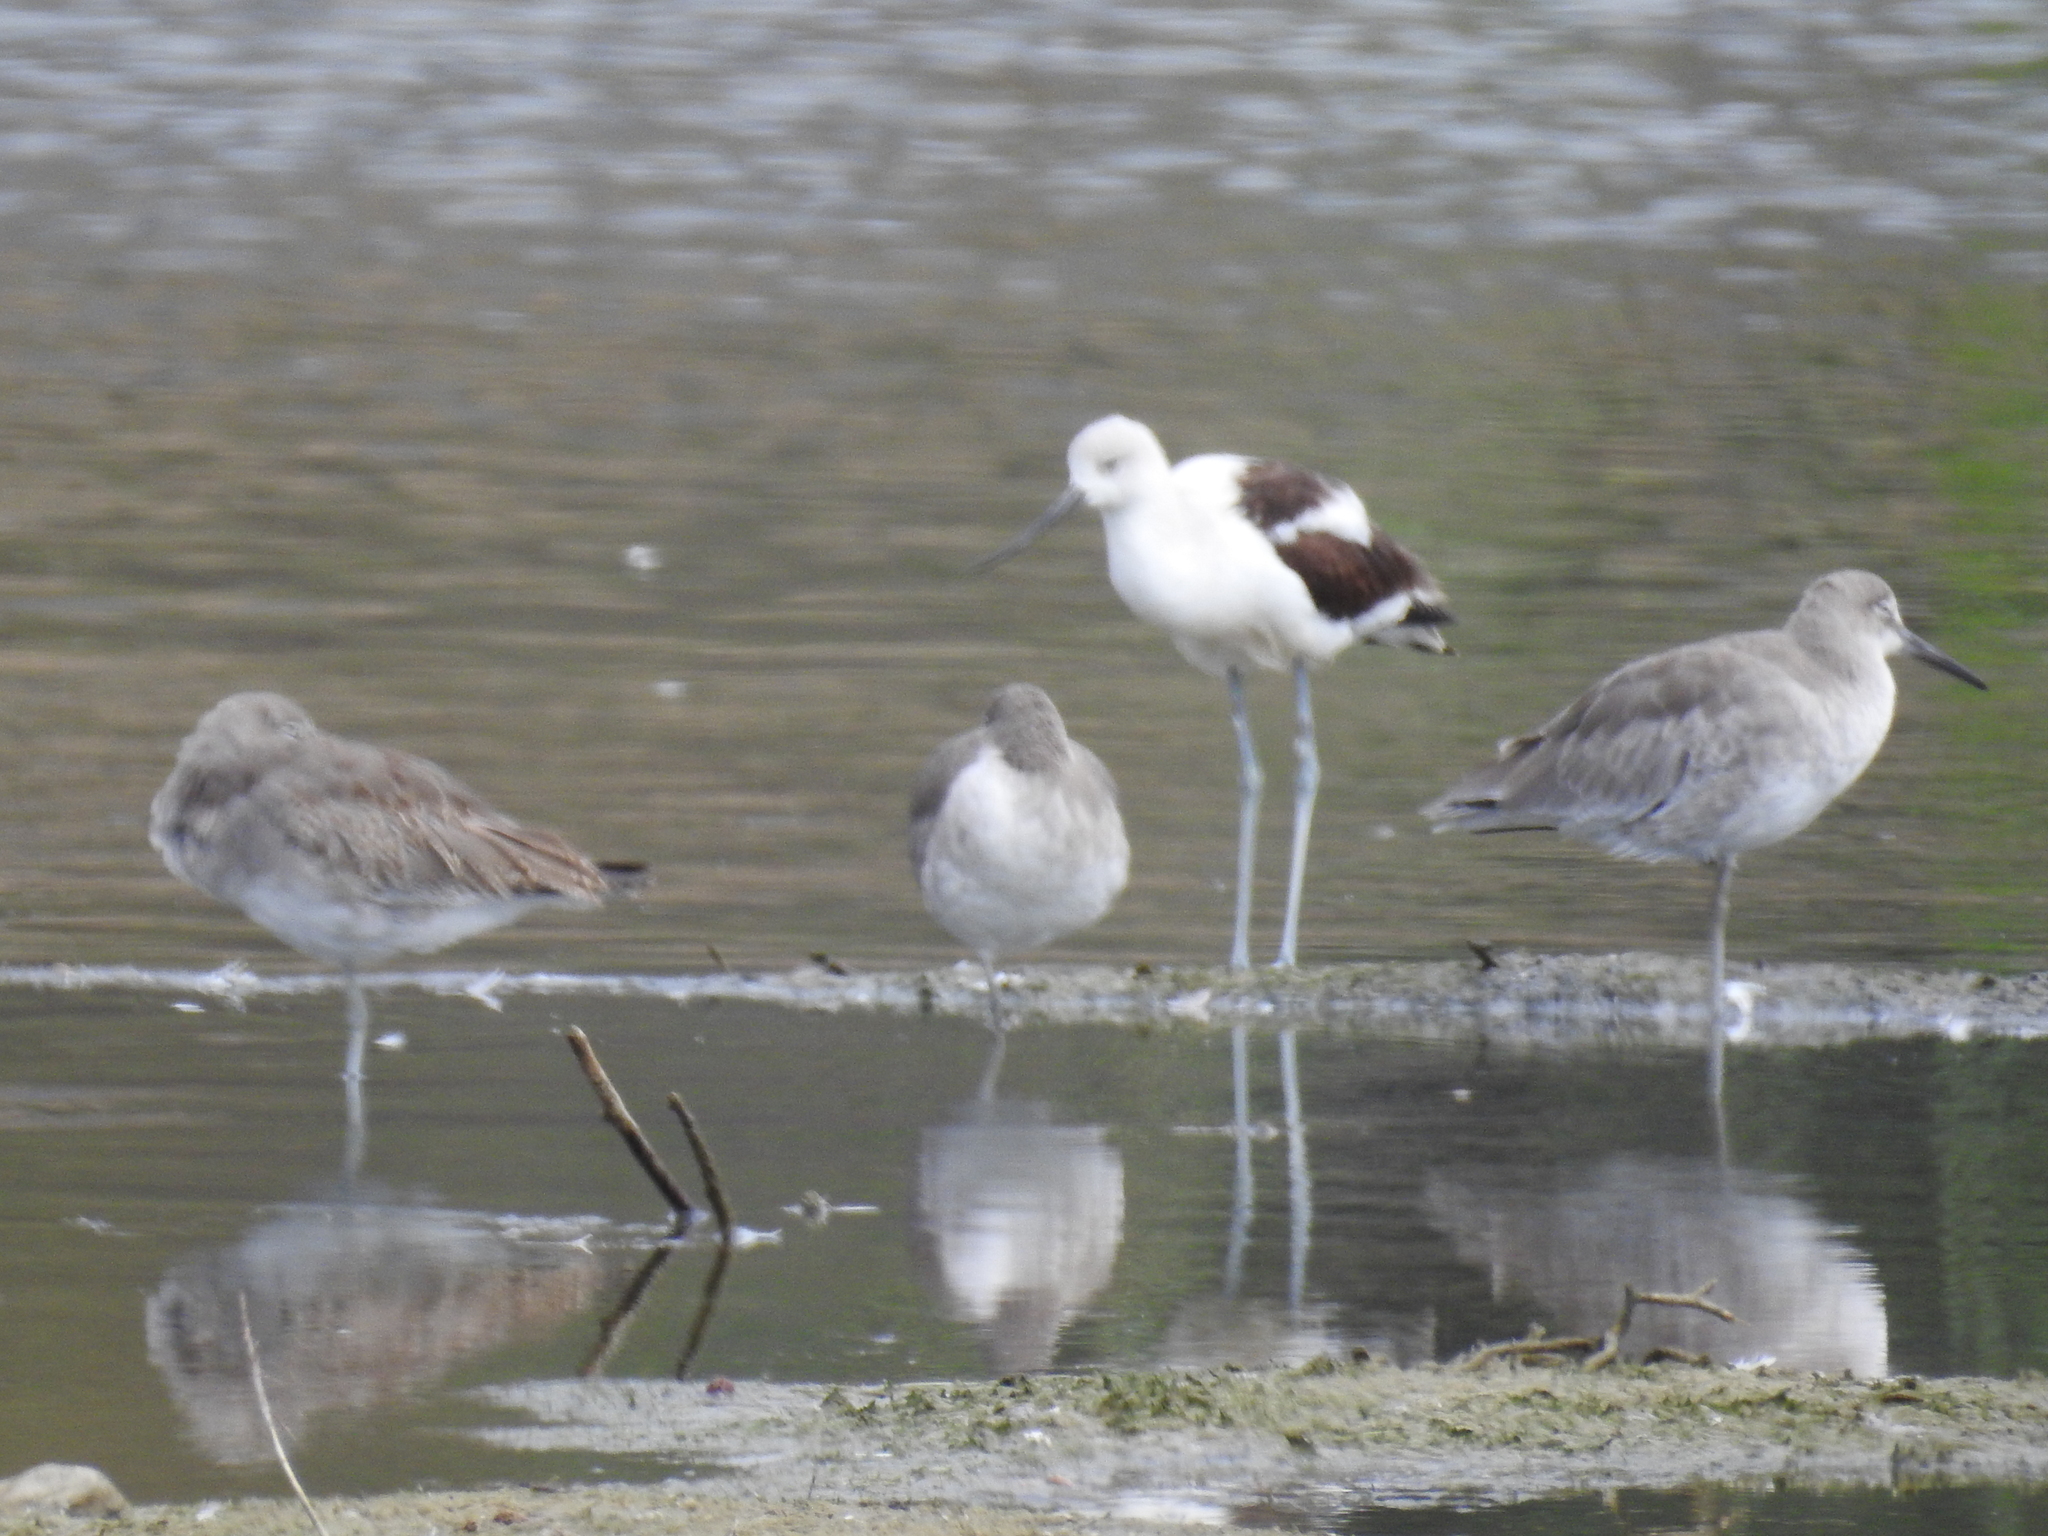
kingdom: Animalia
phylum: Chordata
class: Aves
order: Charadriiformes
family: Recurvirostridae
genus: Recurvirostra
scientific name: Recurvirostra americana
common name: American avocet
